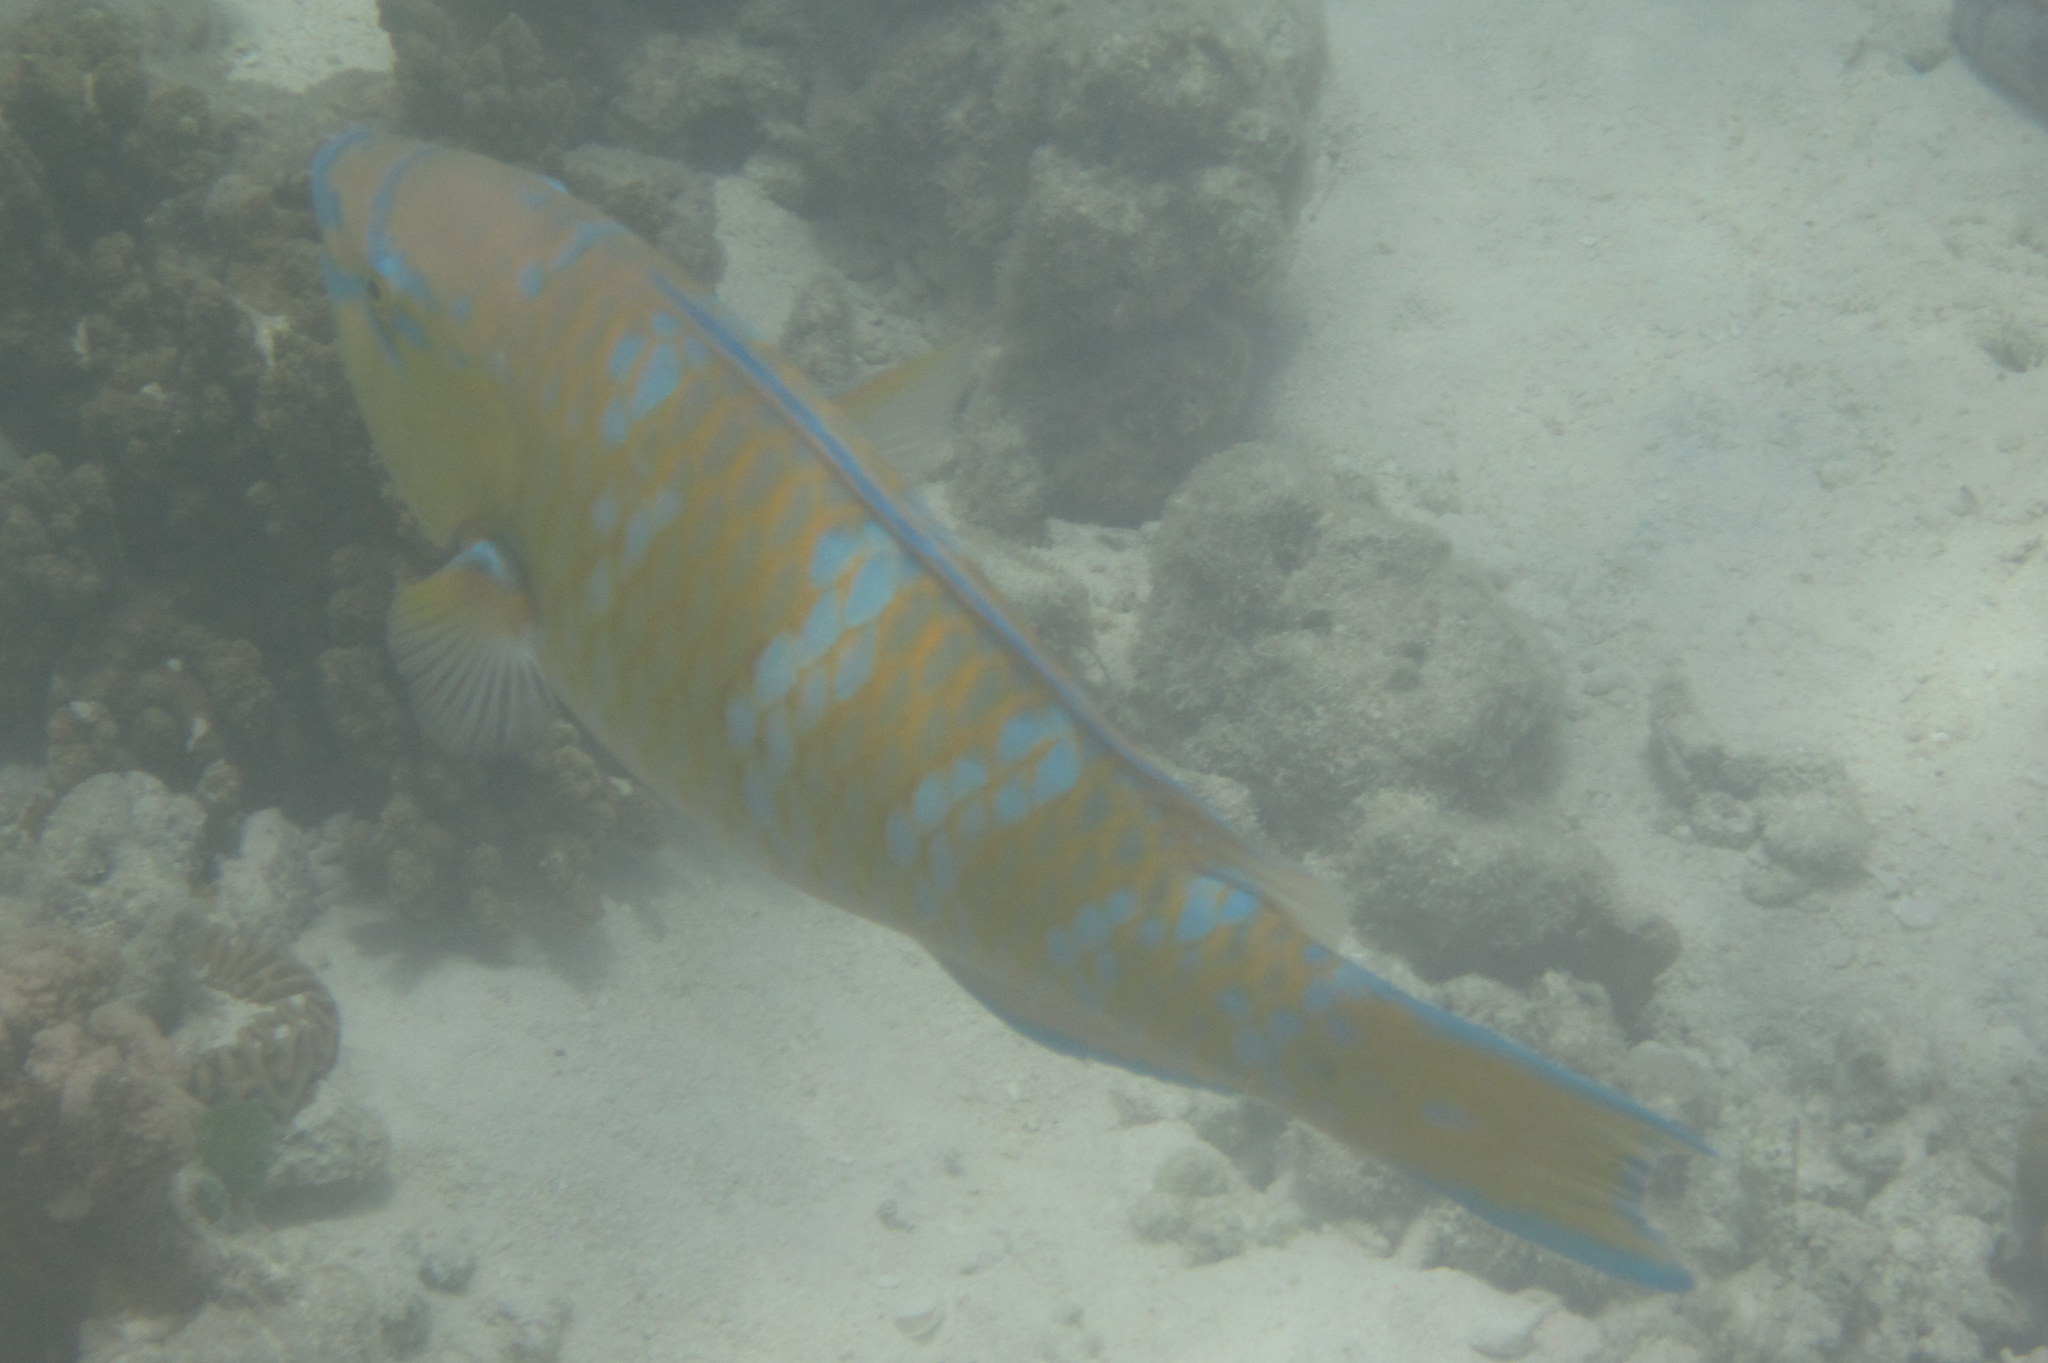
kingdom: Animalia
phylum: Chordata
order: Perciformes
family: Scaridae
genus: Scarus
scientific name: Scarus ghobban
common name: Blue-barred parrotfish
